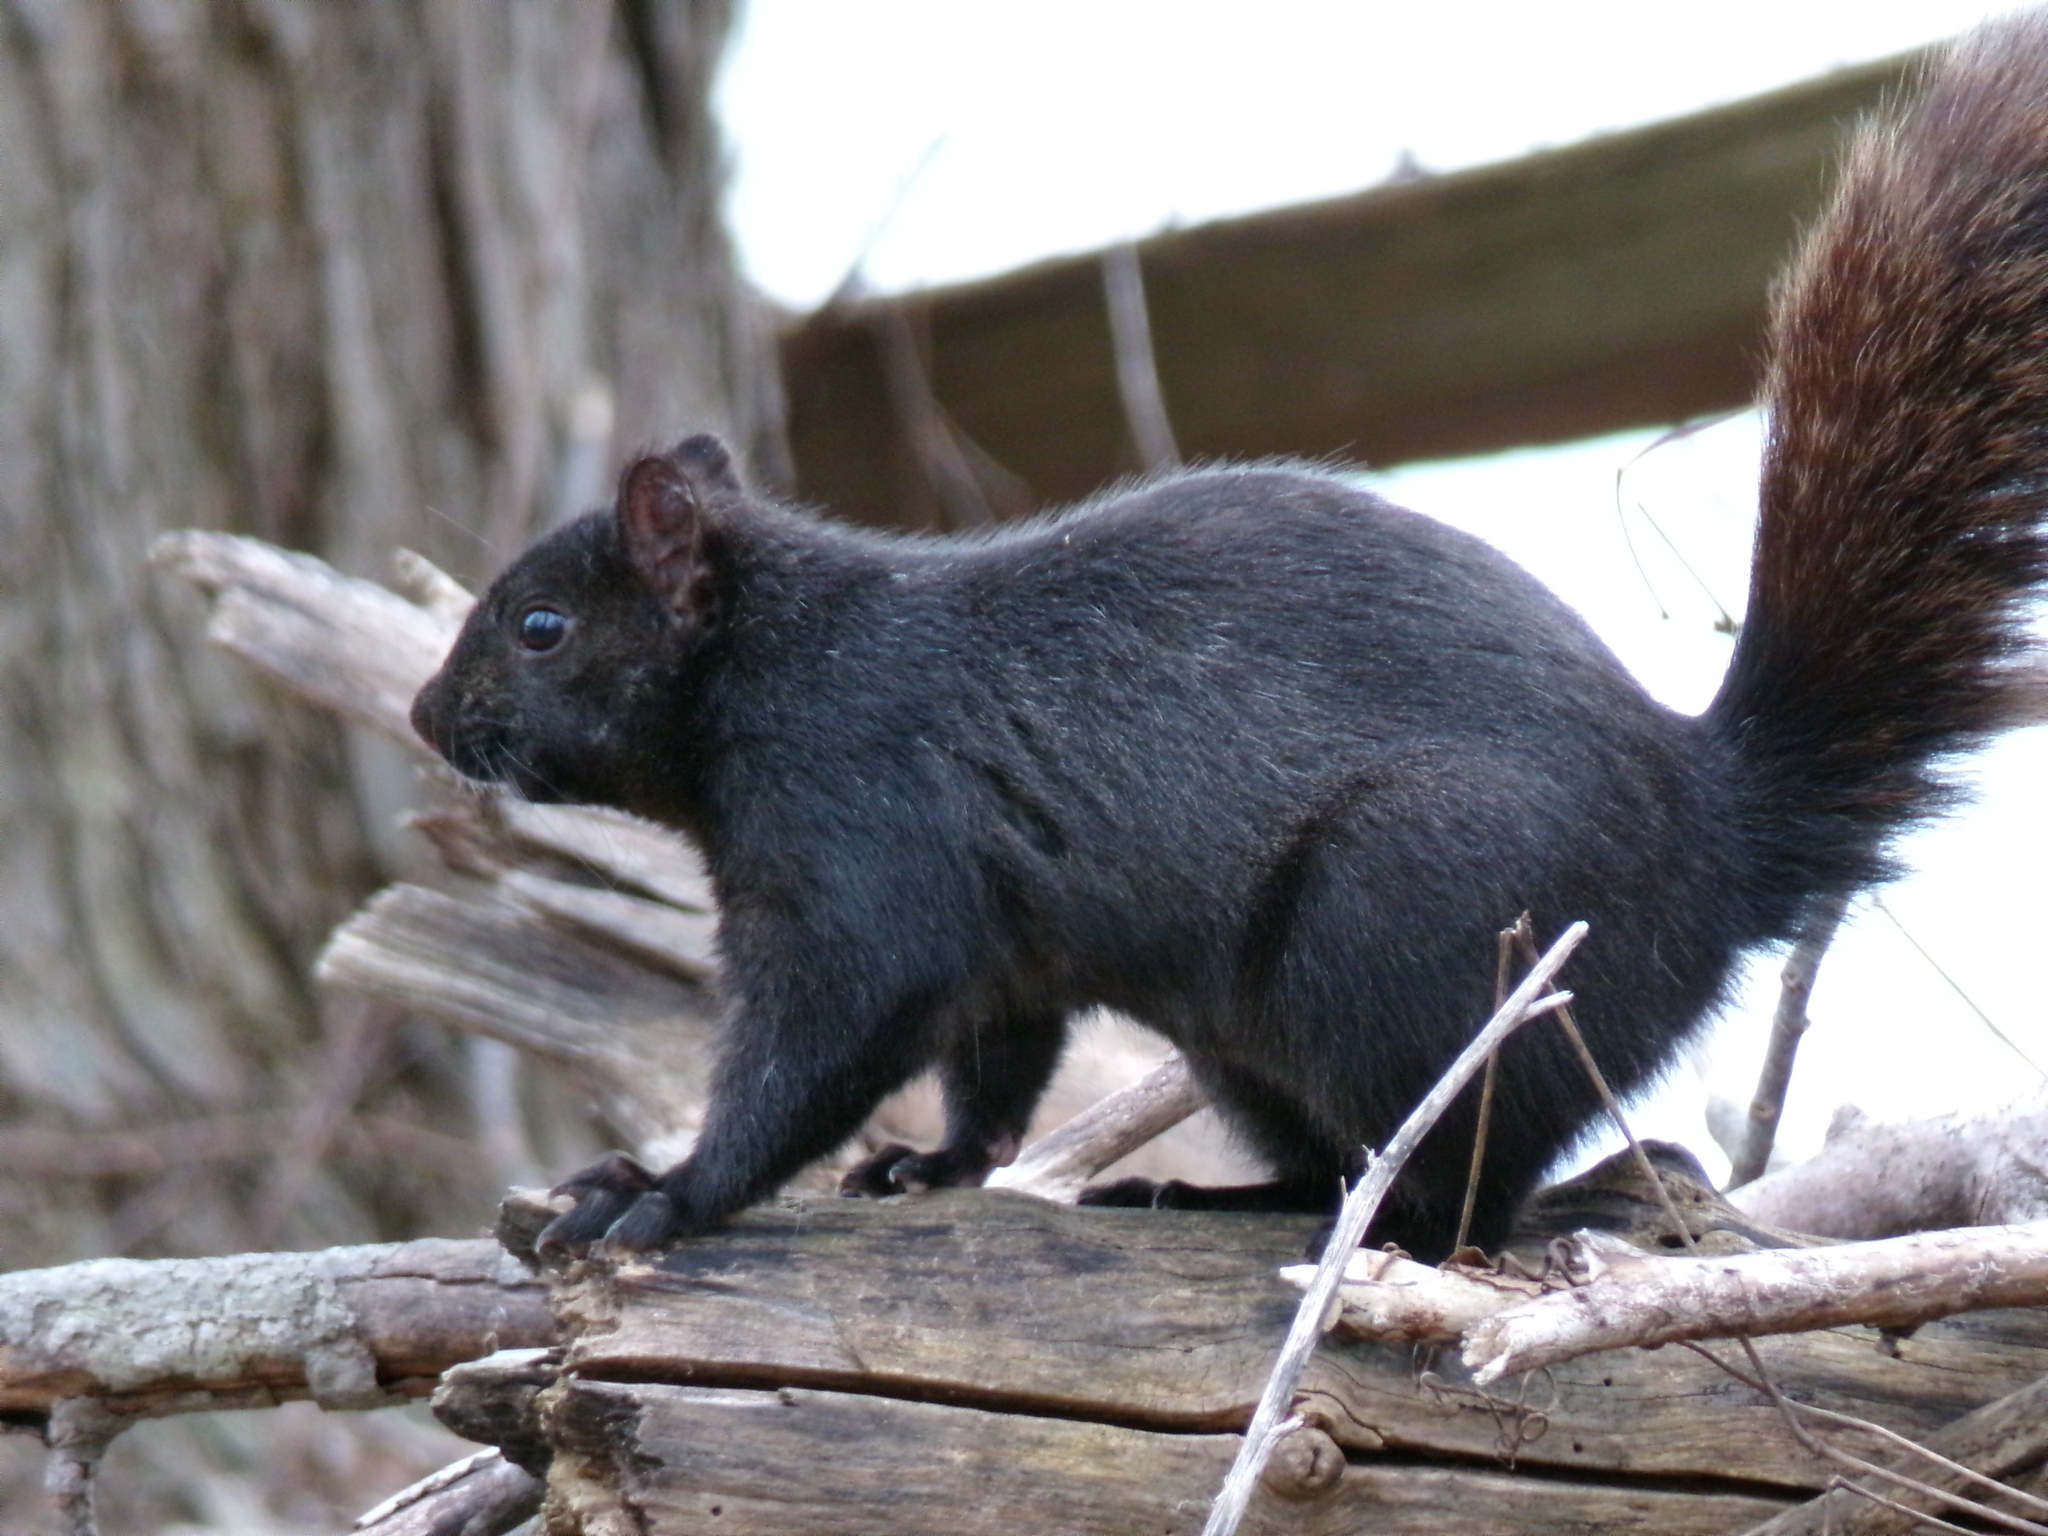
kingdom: Animalia
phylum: Chordata
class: Mammalia
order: Rodentia
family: Sciuridae
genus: Sciurus
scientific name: Sciurus carolinensis
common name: Eastern gray squirrel
